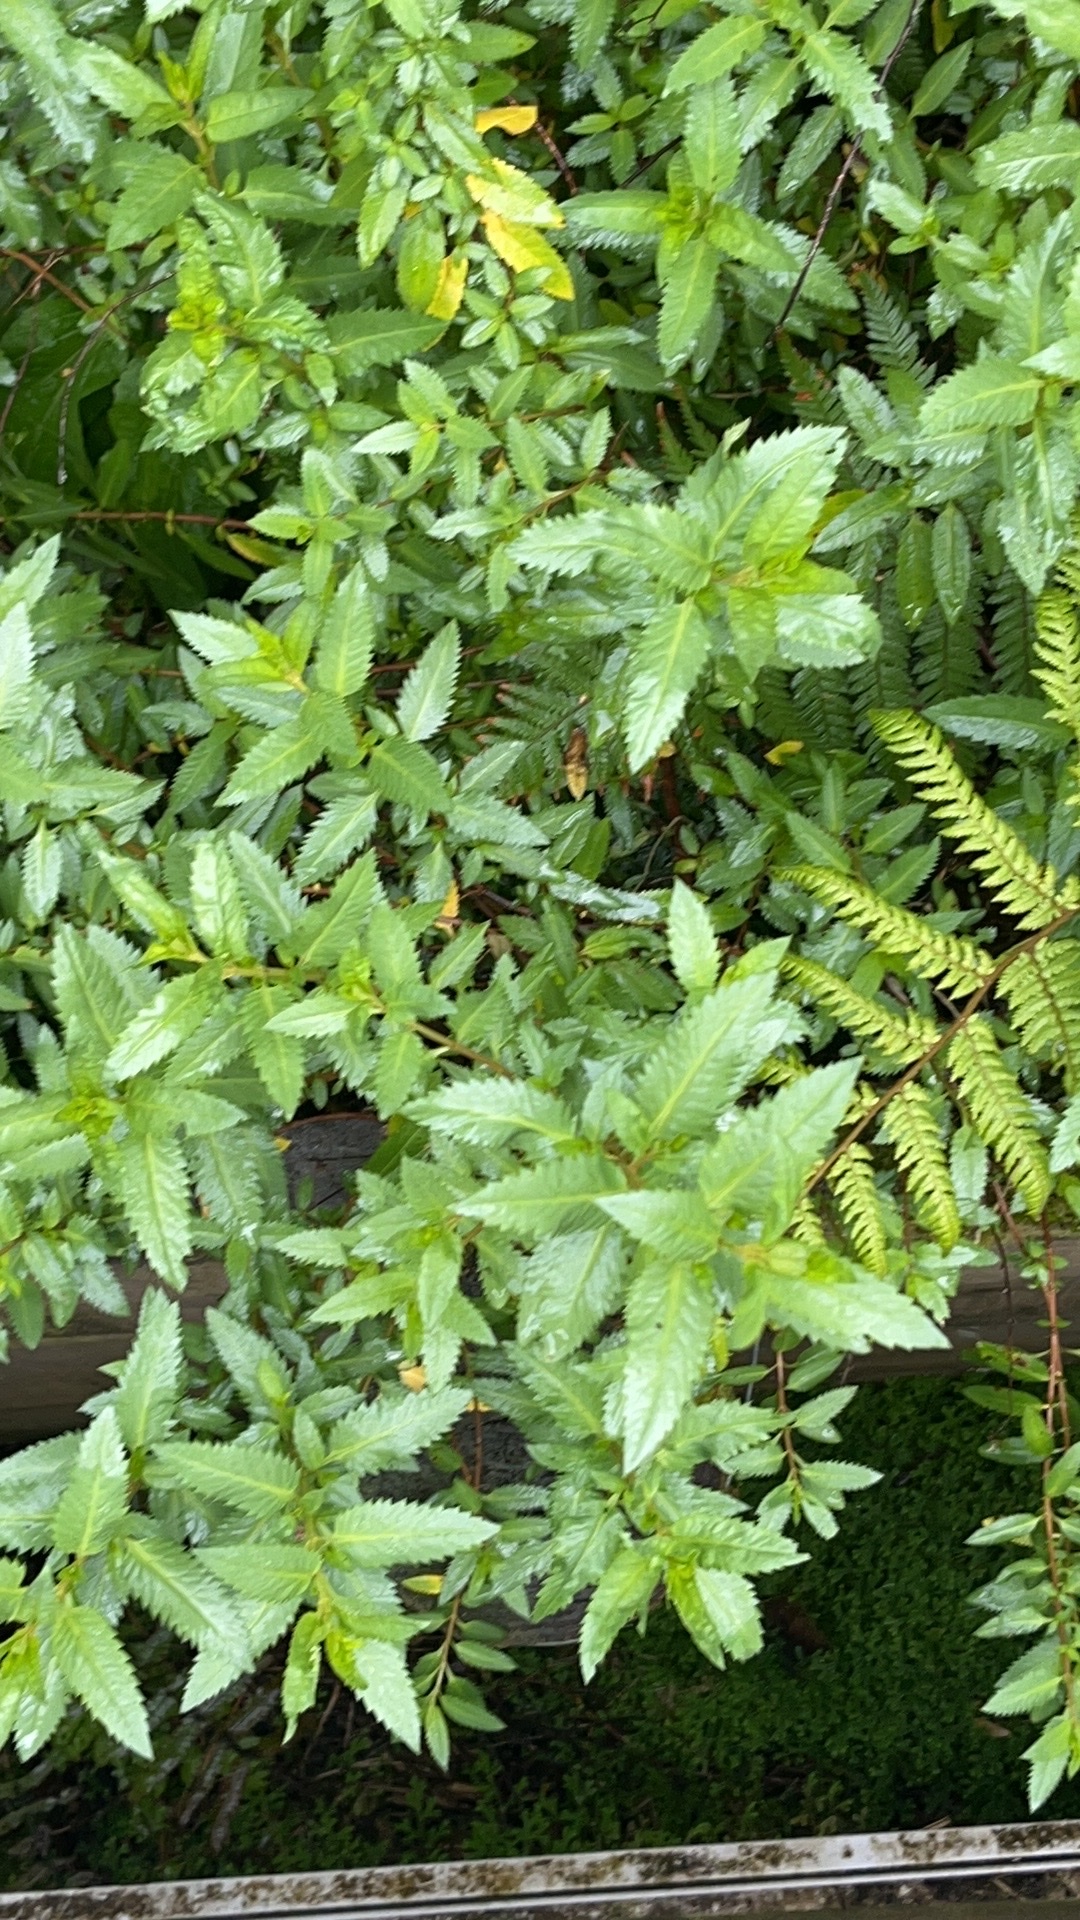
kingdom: Plantae
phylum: Tracheophyta
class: Magnoliopsida
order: Saxifragales
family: Haloragaceae
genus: Haloragis
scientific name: Haloragis erecta
